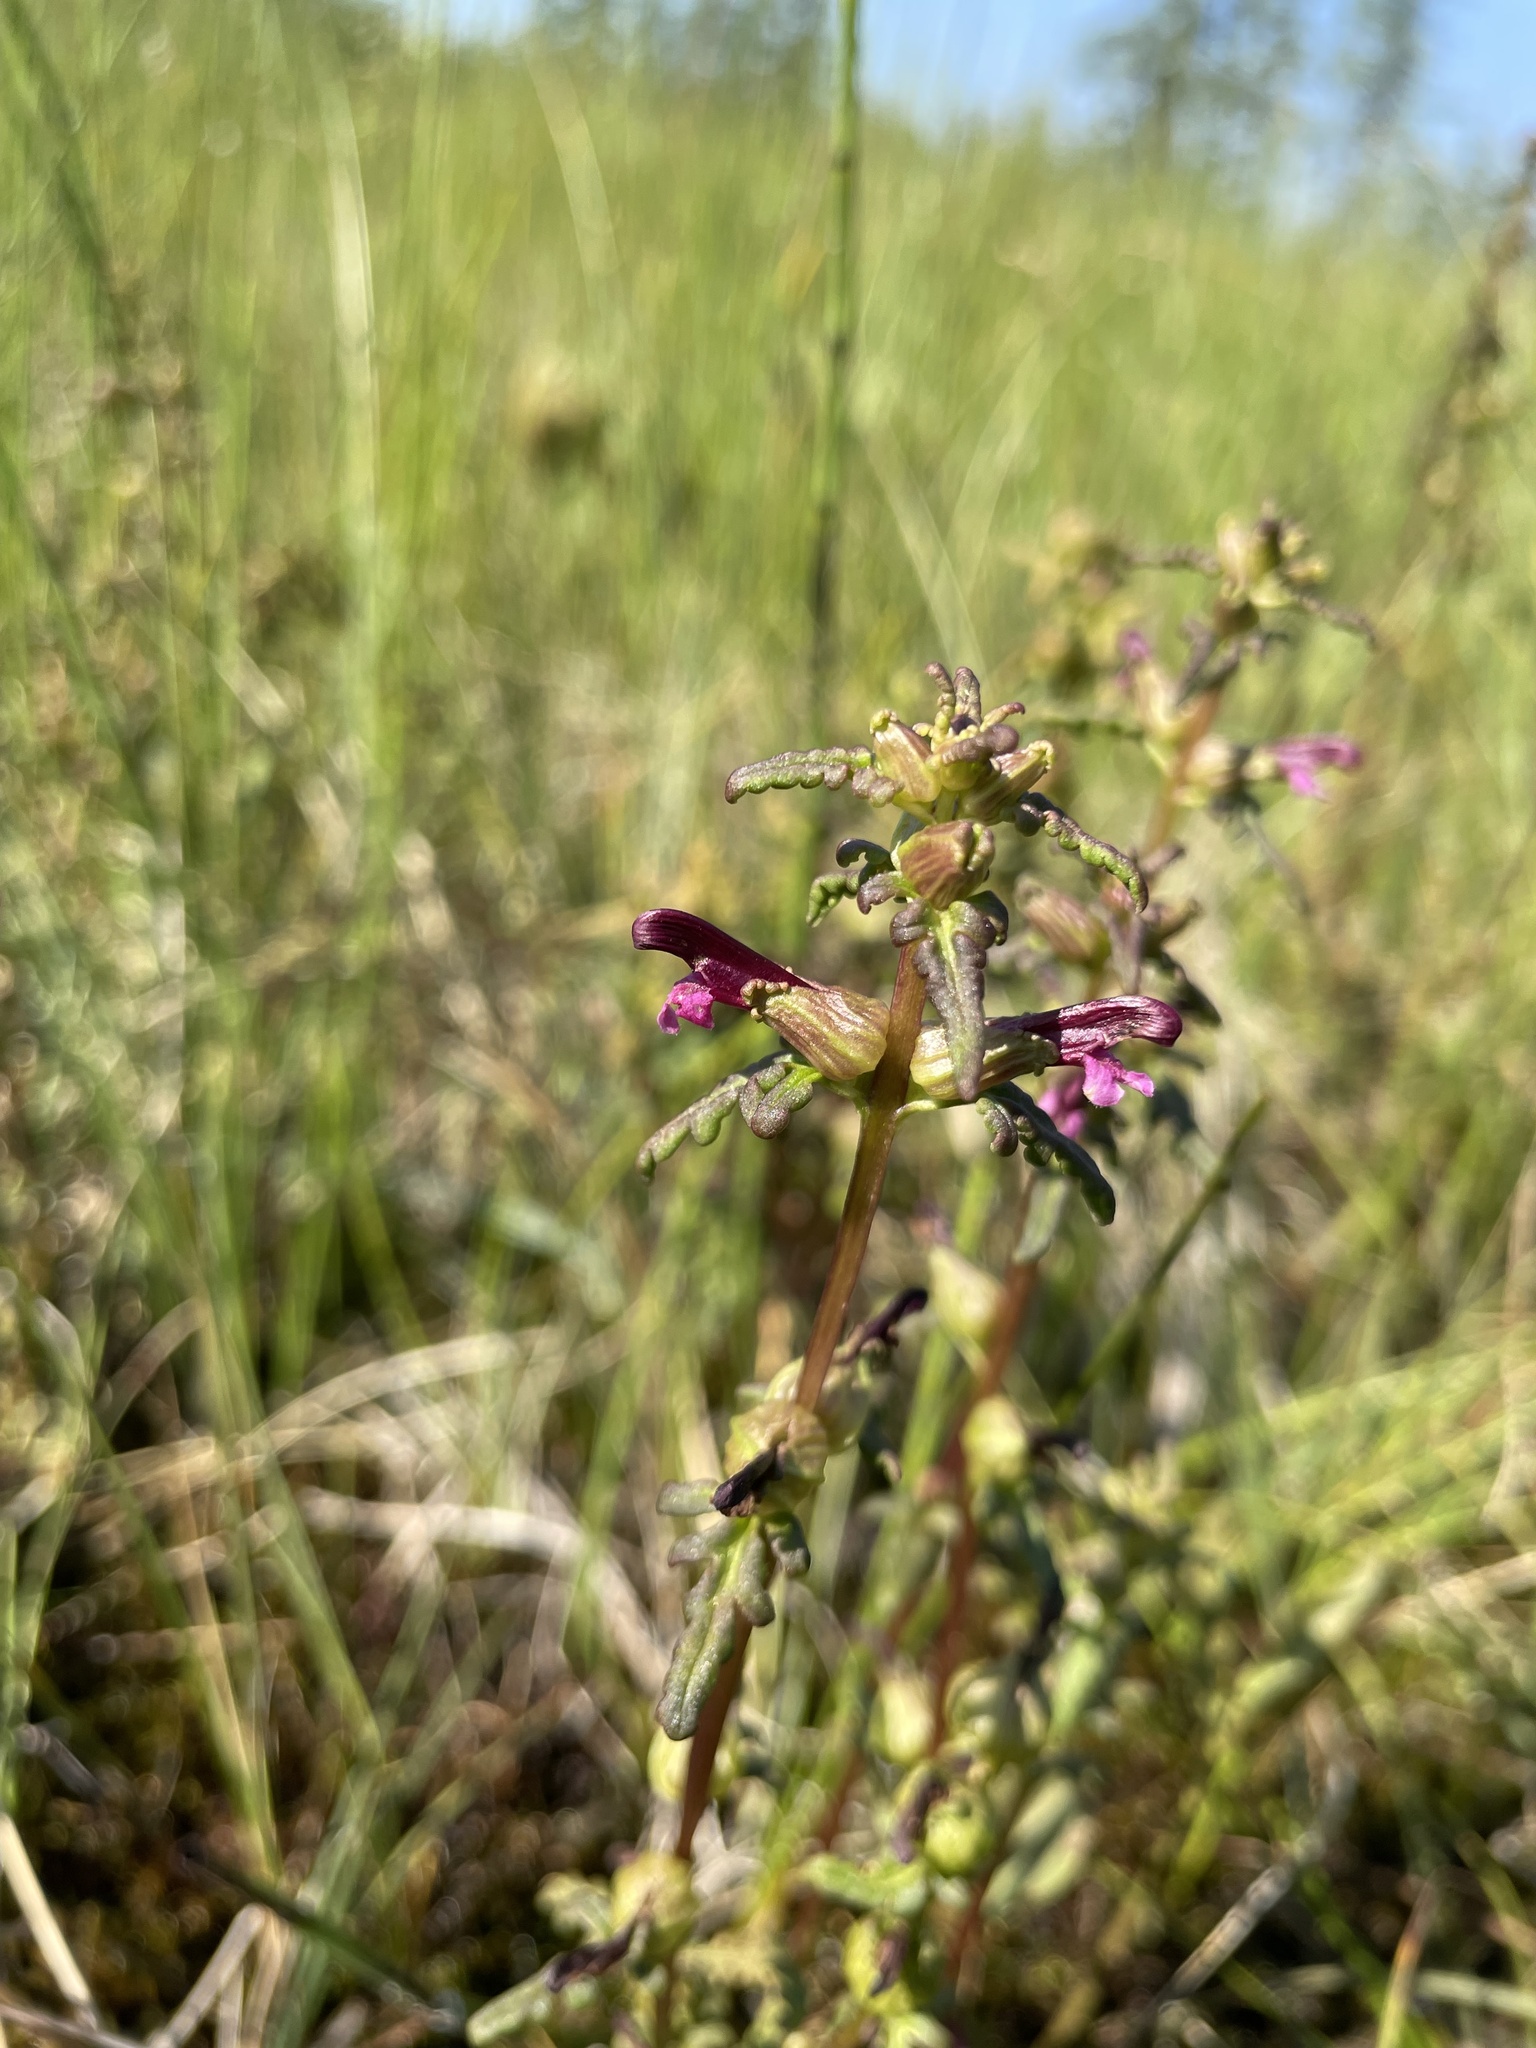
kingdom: Plantae
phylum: Tracheophyta
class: Magnoliopsida
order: Lamiales
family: Orobanchaceae
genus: Pedicularis
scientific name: Pedicularis parviflora
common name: Muskeg lousewort
